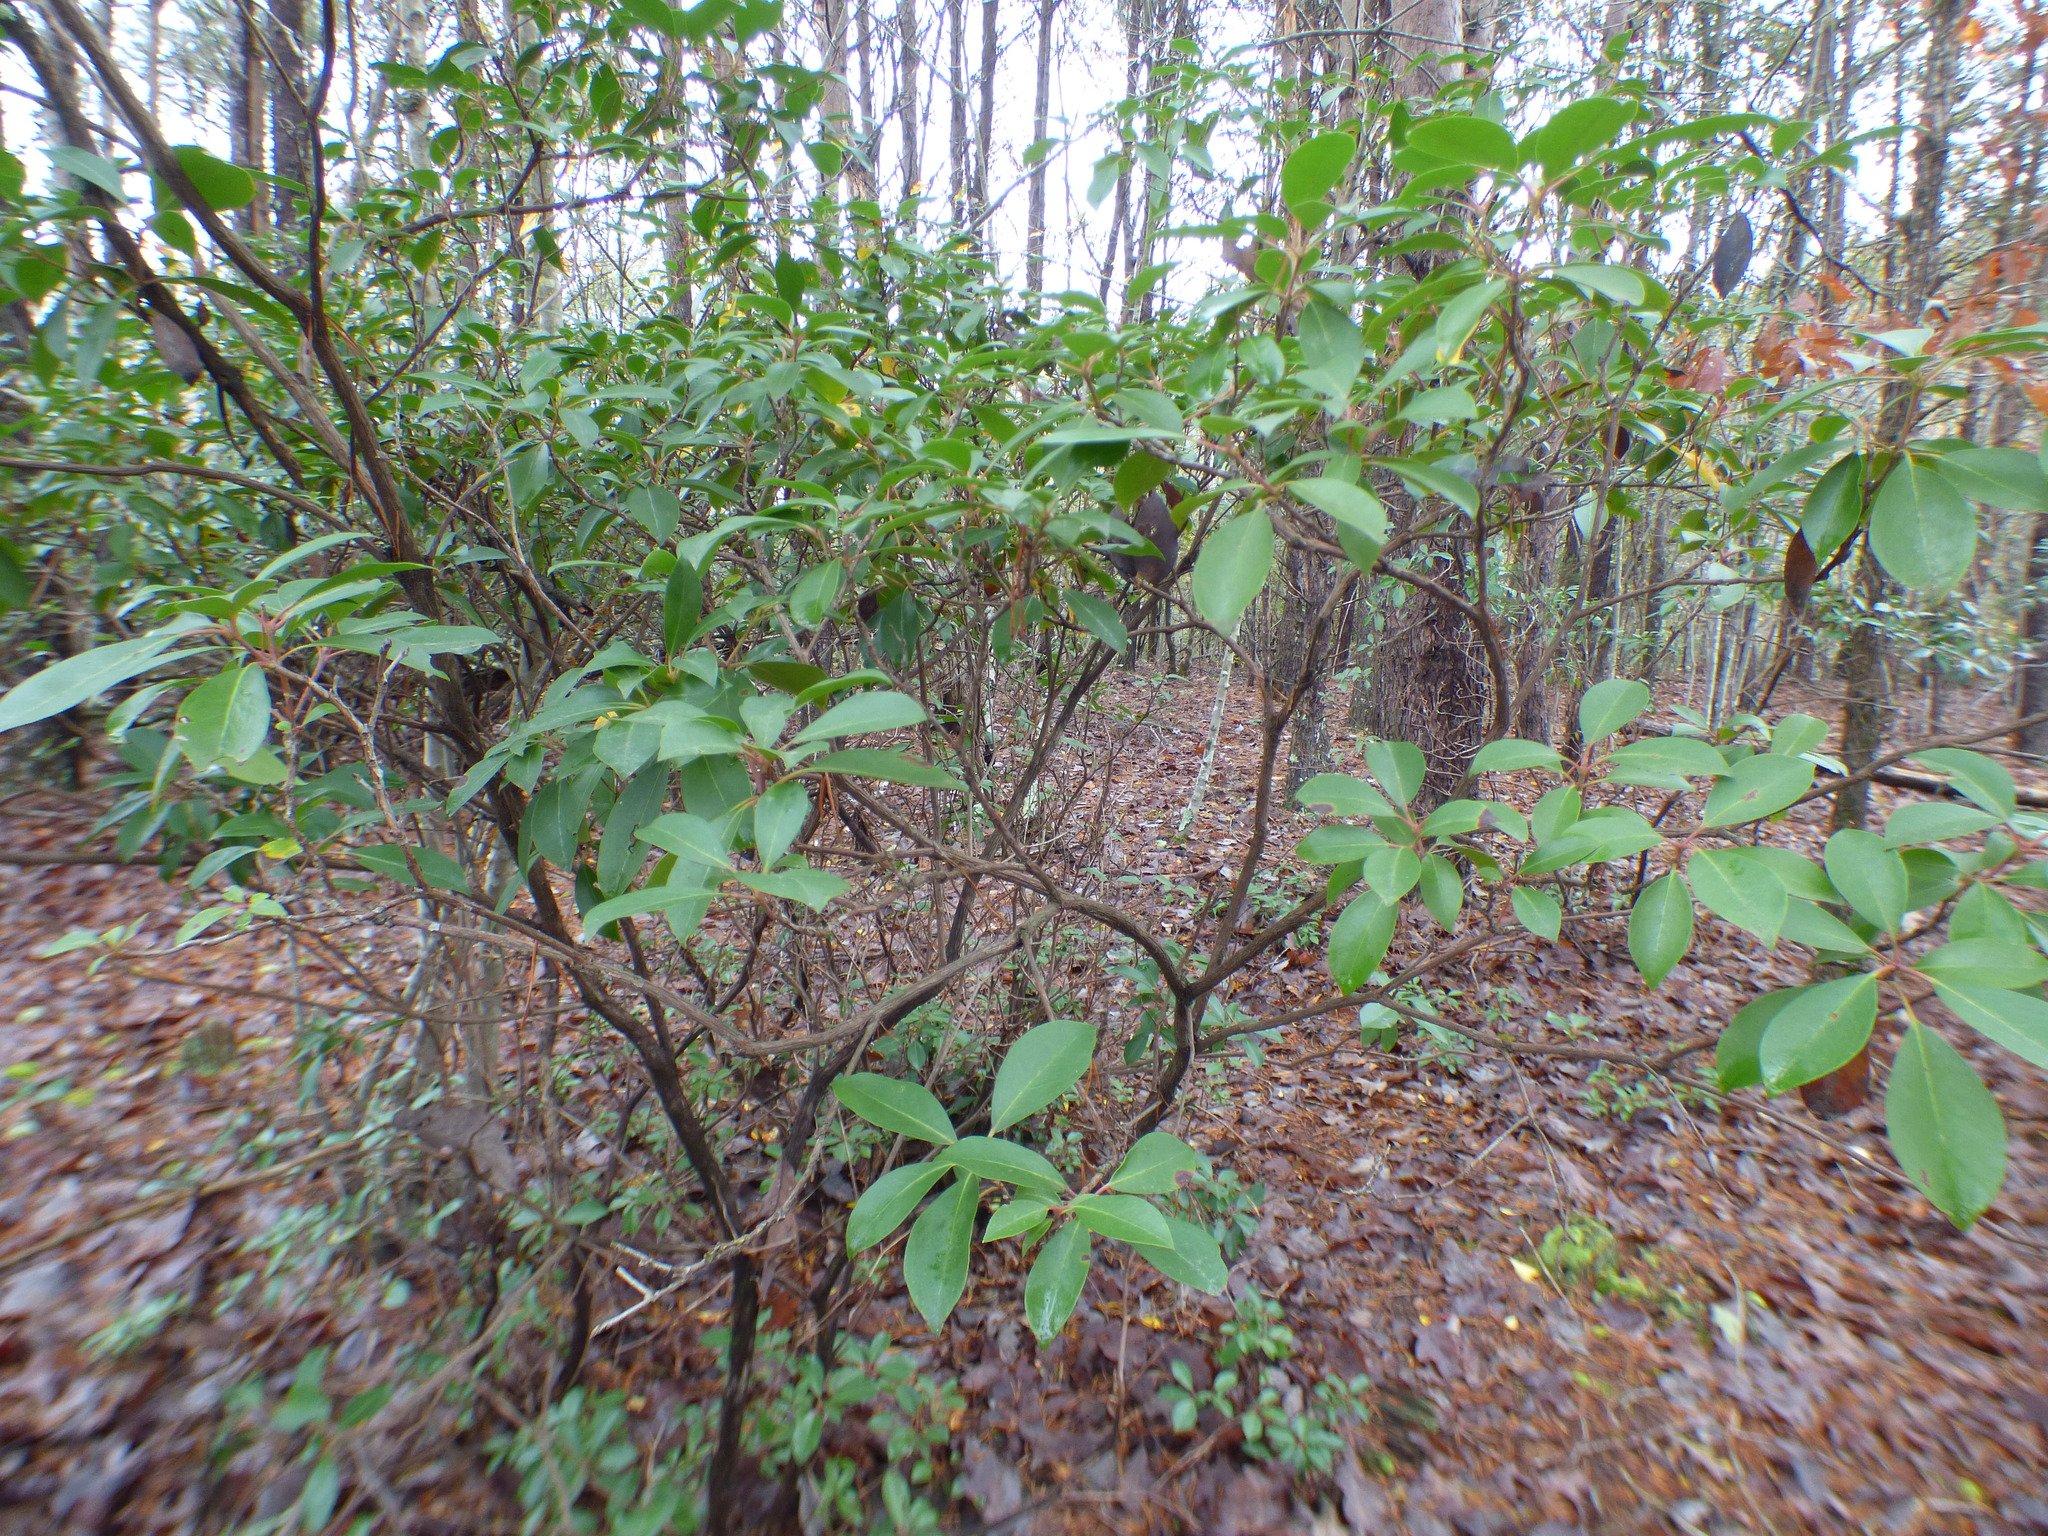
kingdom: Plantae
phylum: Tracheophyta
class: Magnoliopsida
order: Ericales
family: Ericaceae
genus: Kalmia
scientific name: Kalmia latifolia
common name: Mountain-laurel
